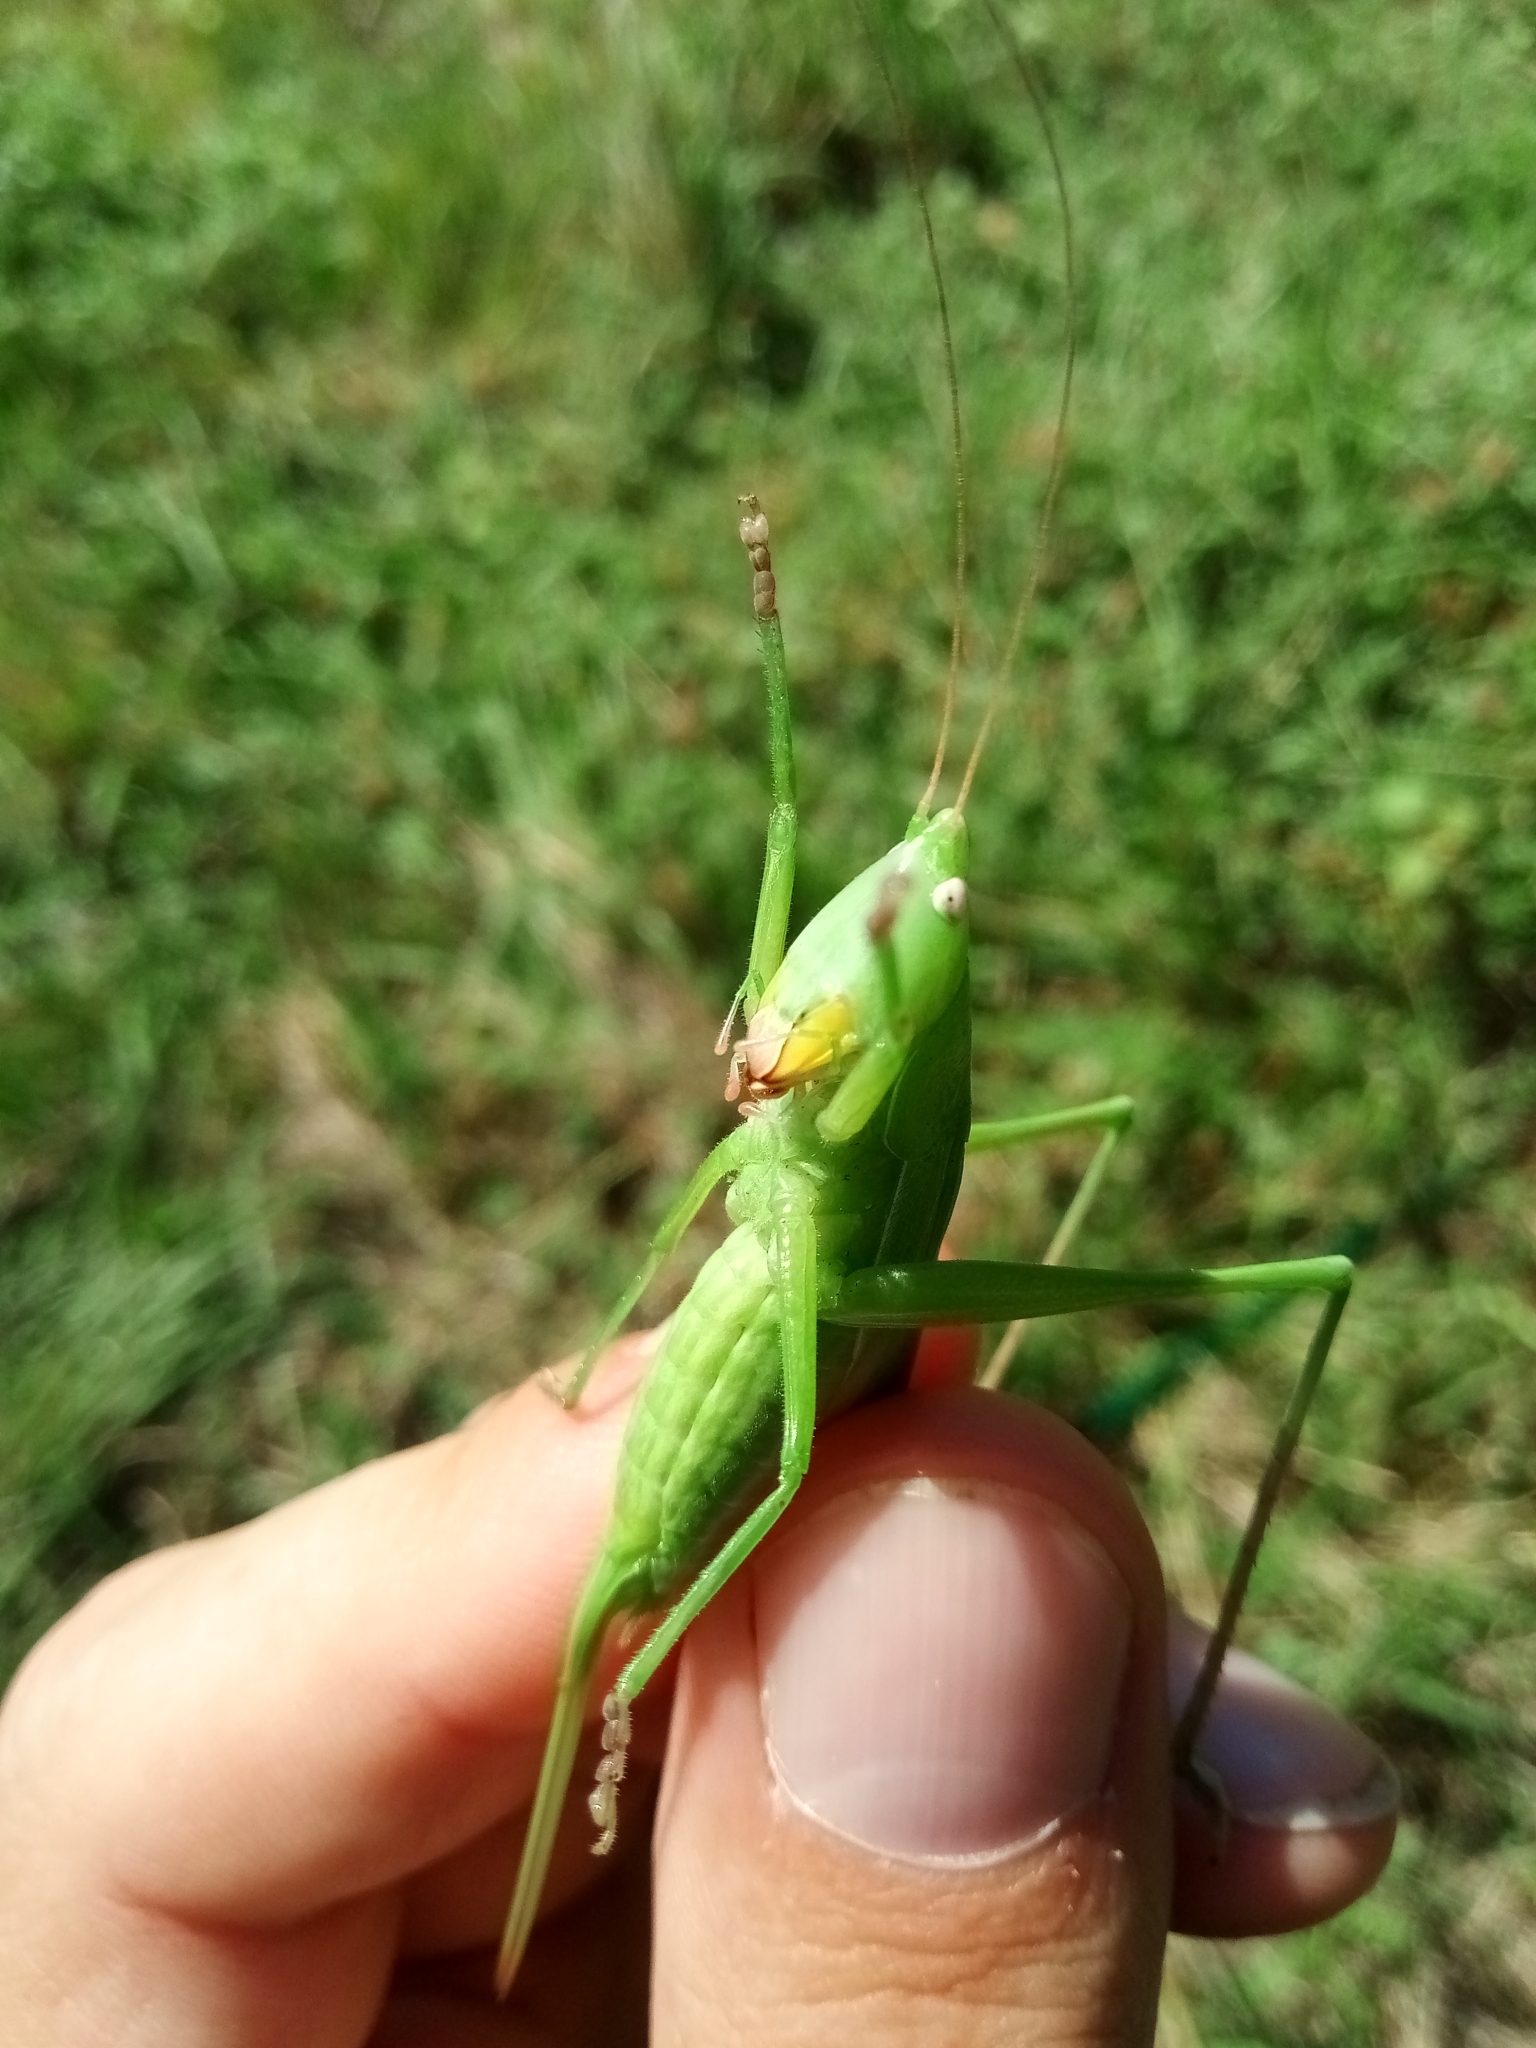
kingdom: Animalia
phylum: Arthropoda
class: Insecta
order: Orthoptera
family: Tettigoniidae
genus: Ruspolia
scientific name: Ruspolia nitidula
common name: Large conehead
